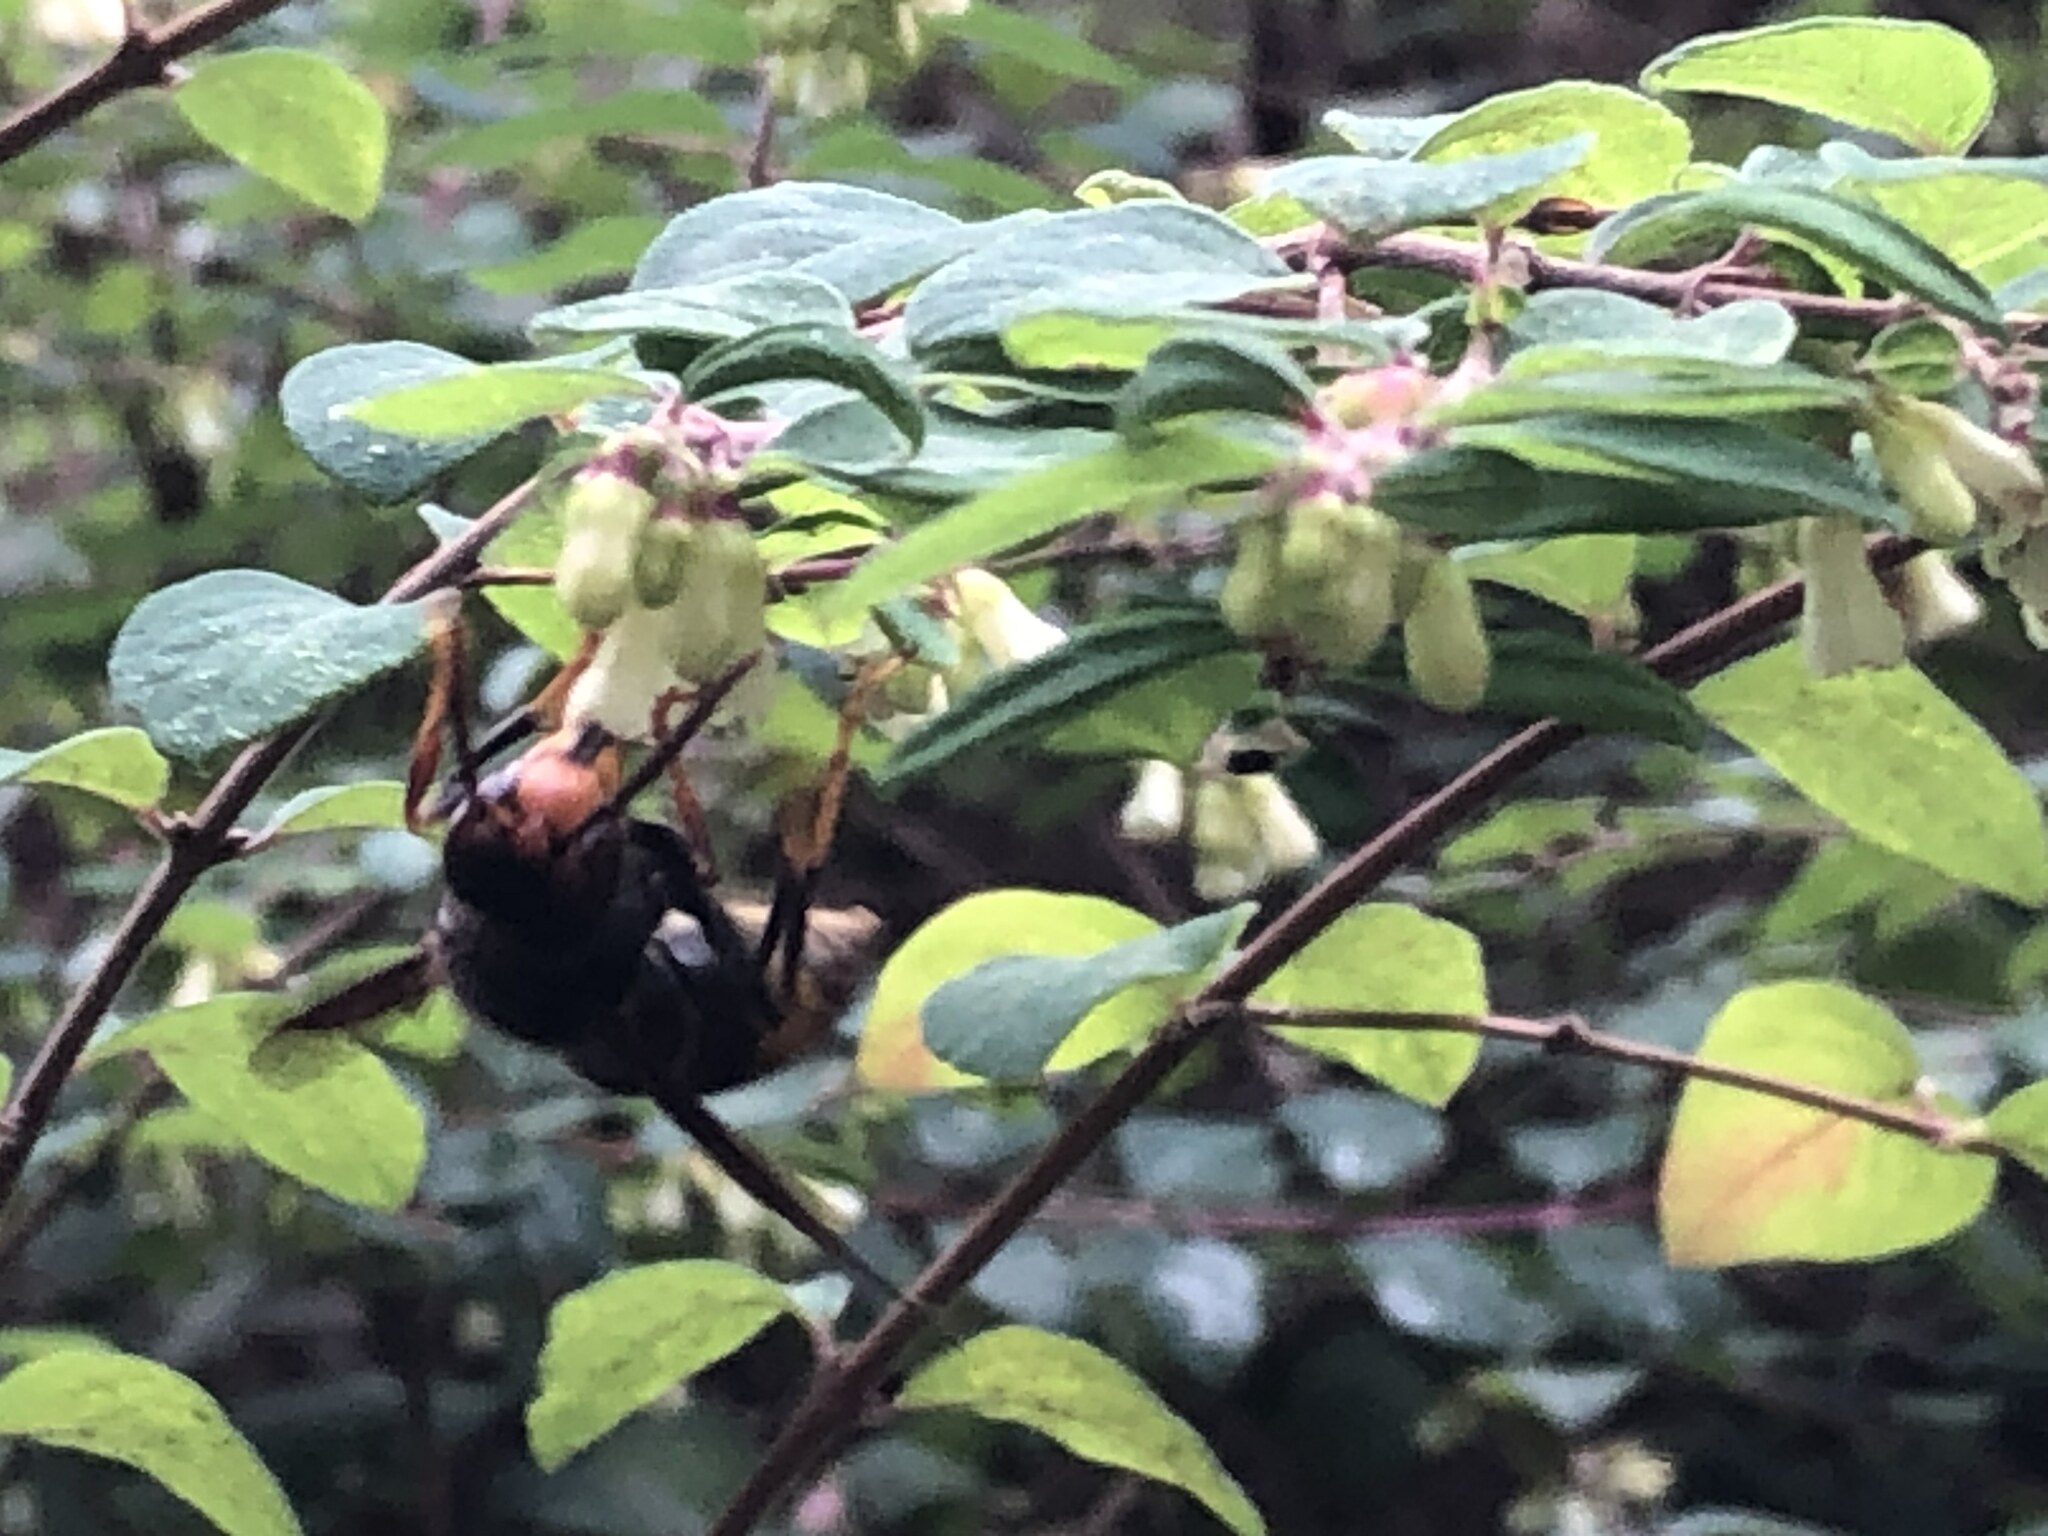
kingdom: Animalia
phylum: Arthropoda
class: Insecta
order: Hymenoptera
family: Vespidae
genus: Vespa
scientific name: Vespa velutina
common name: Asian hornet
